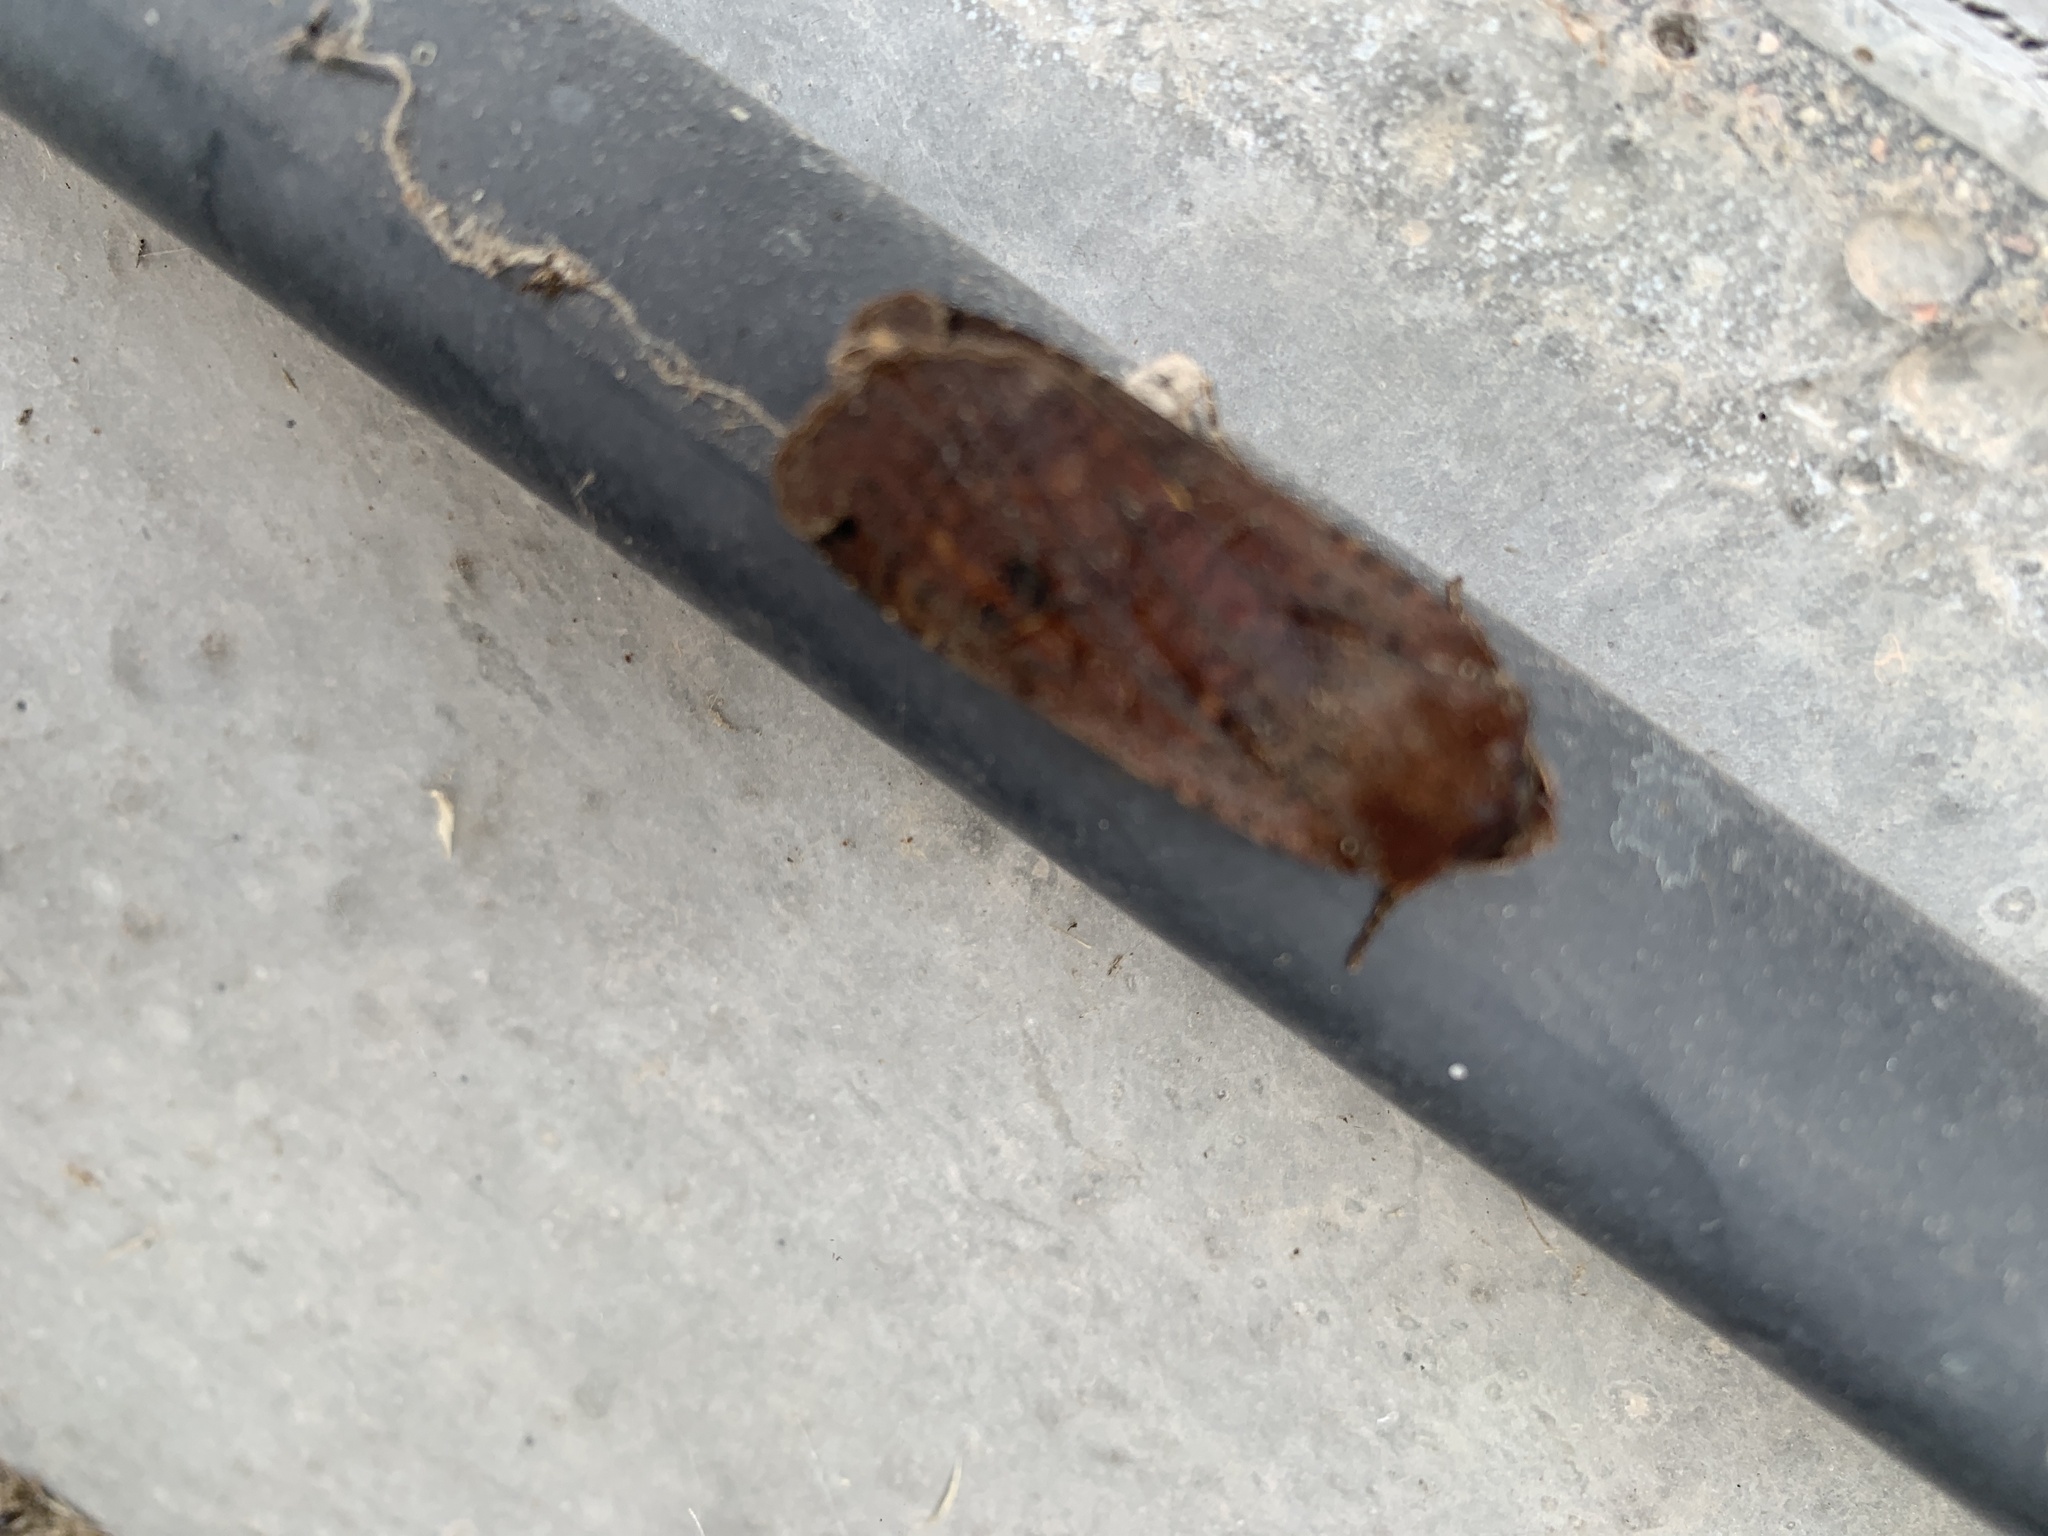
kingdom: Animalia
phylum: Arthropoda
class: Insecta
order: Lepidoptera
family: Noctuidae
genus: Noctua
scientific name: Noctua pronuba
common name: Large yellow underwing
